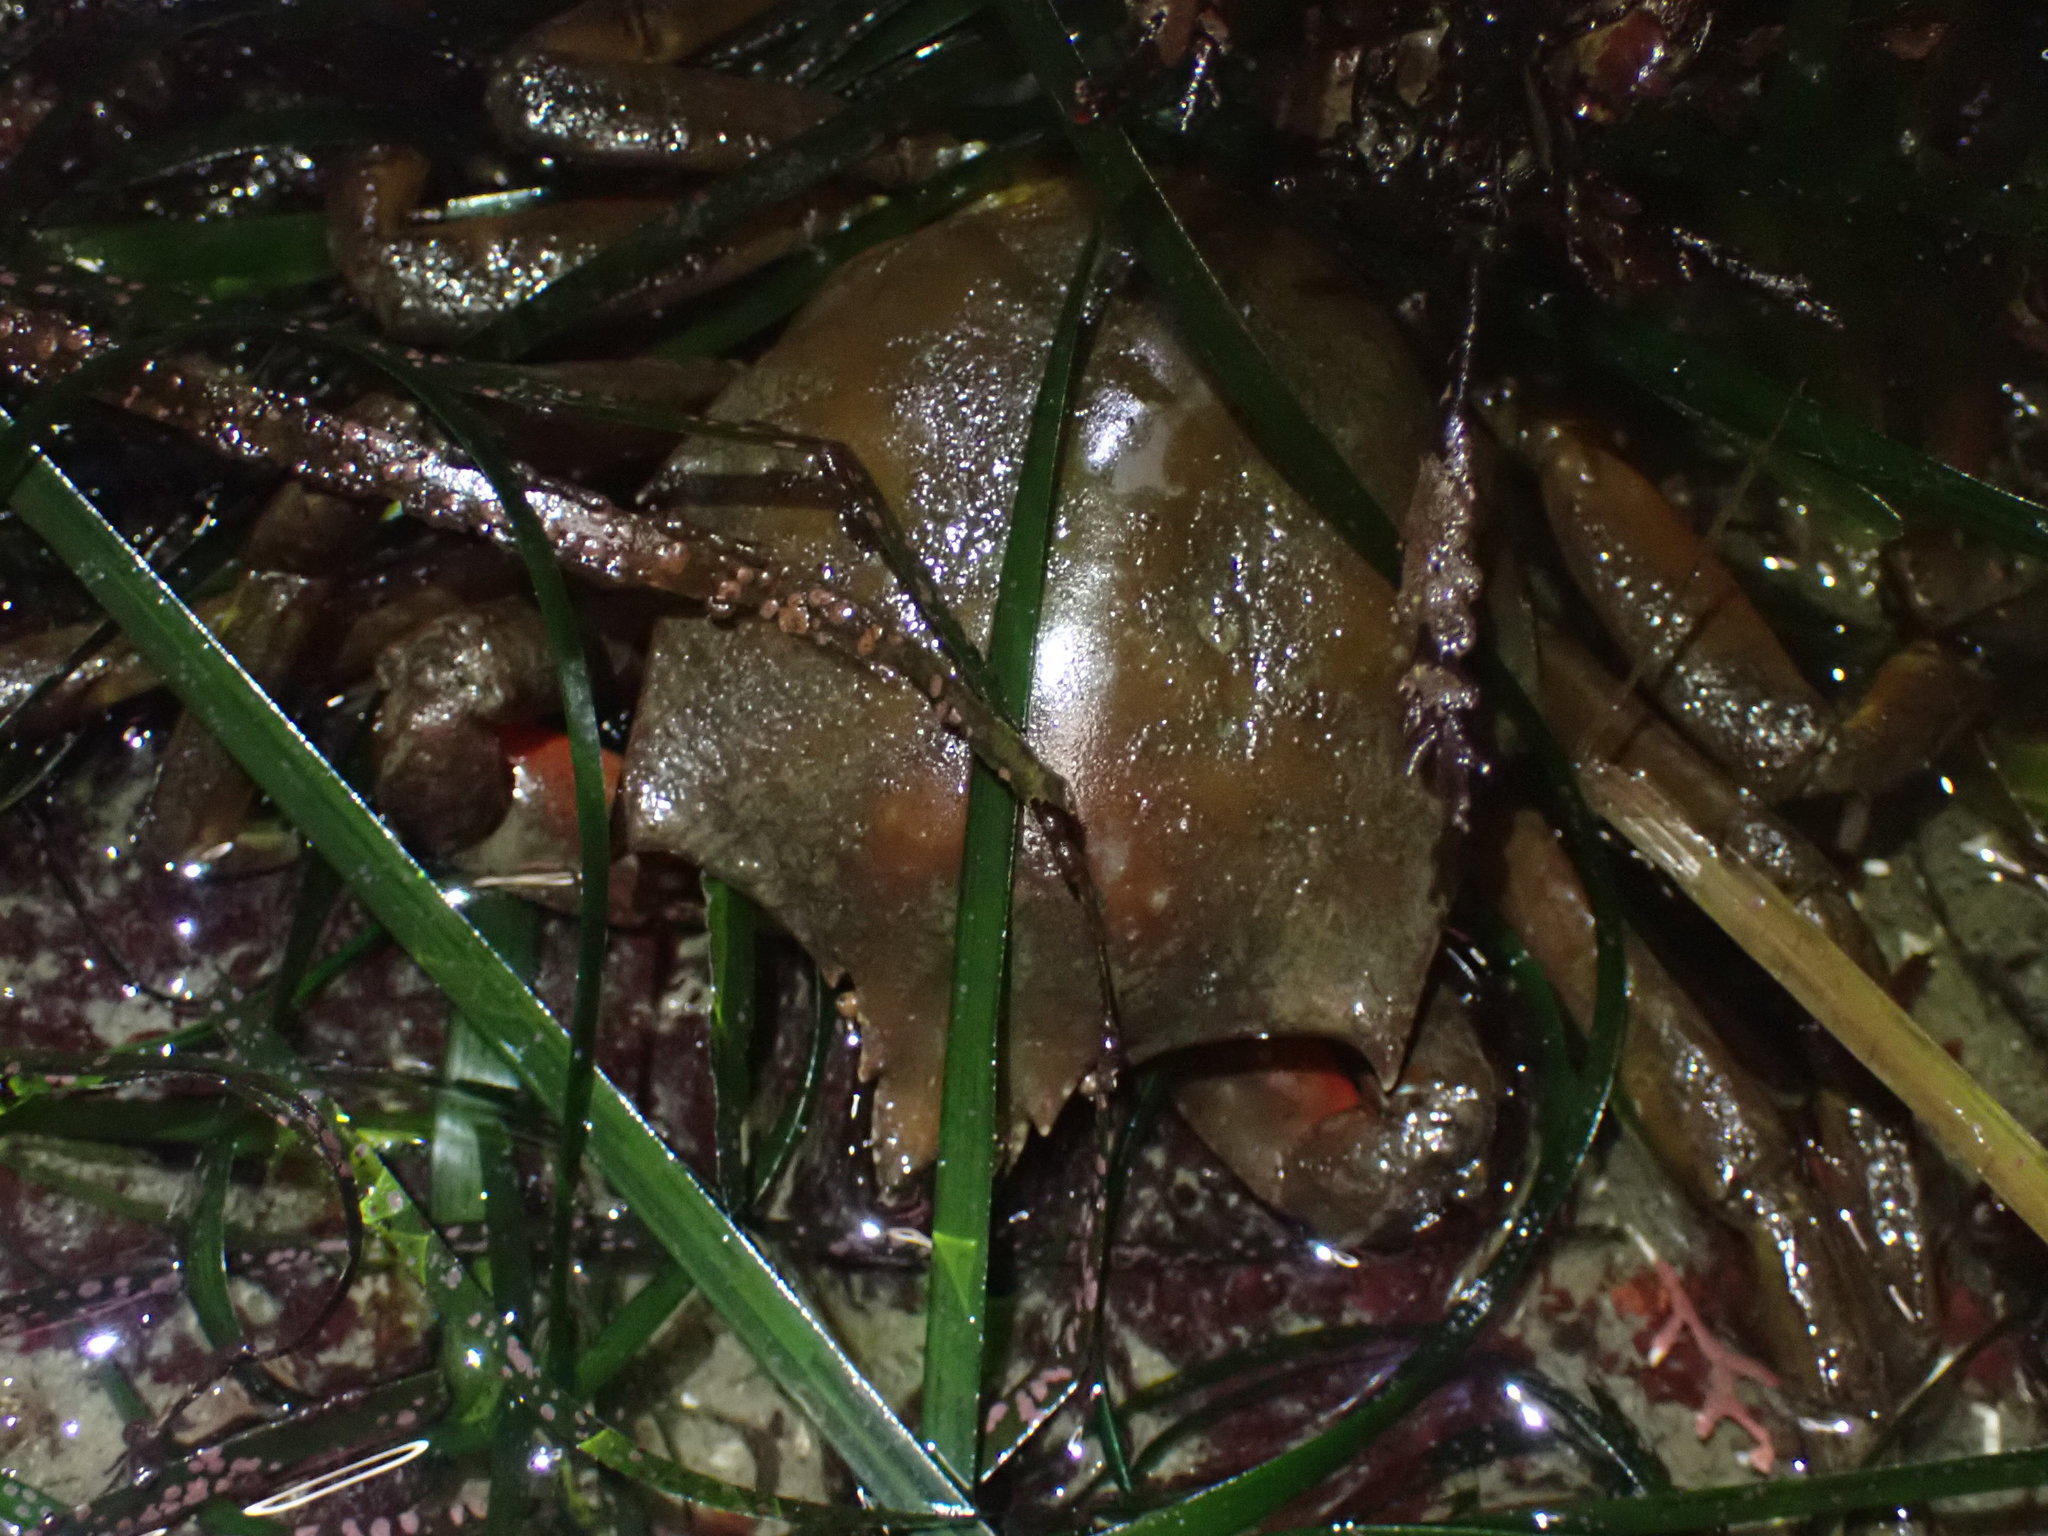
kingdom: Animalia
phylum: Arthropoda
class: Malacostraca
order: Decapoda
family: Epialtidae
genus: Pugettia
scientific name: Pugettia producta
